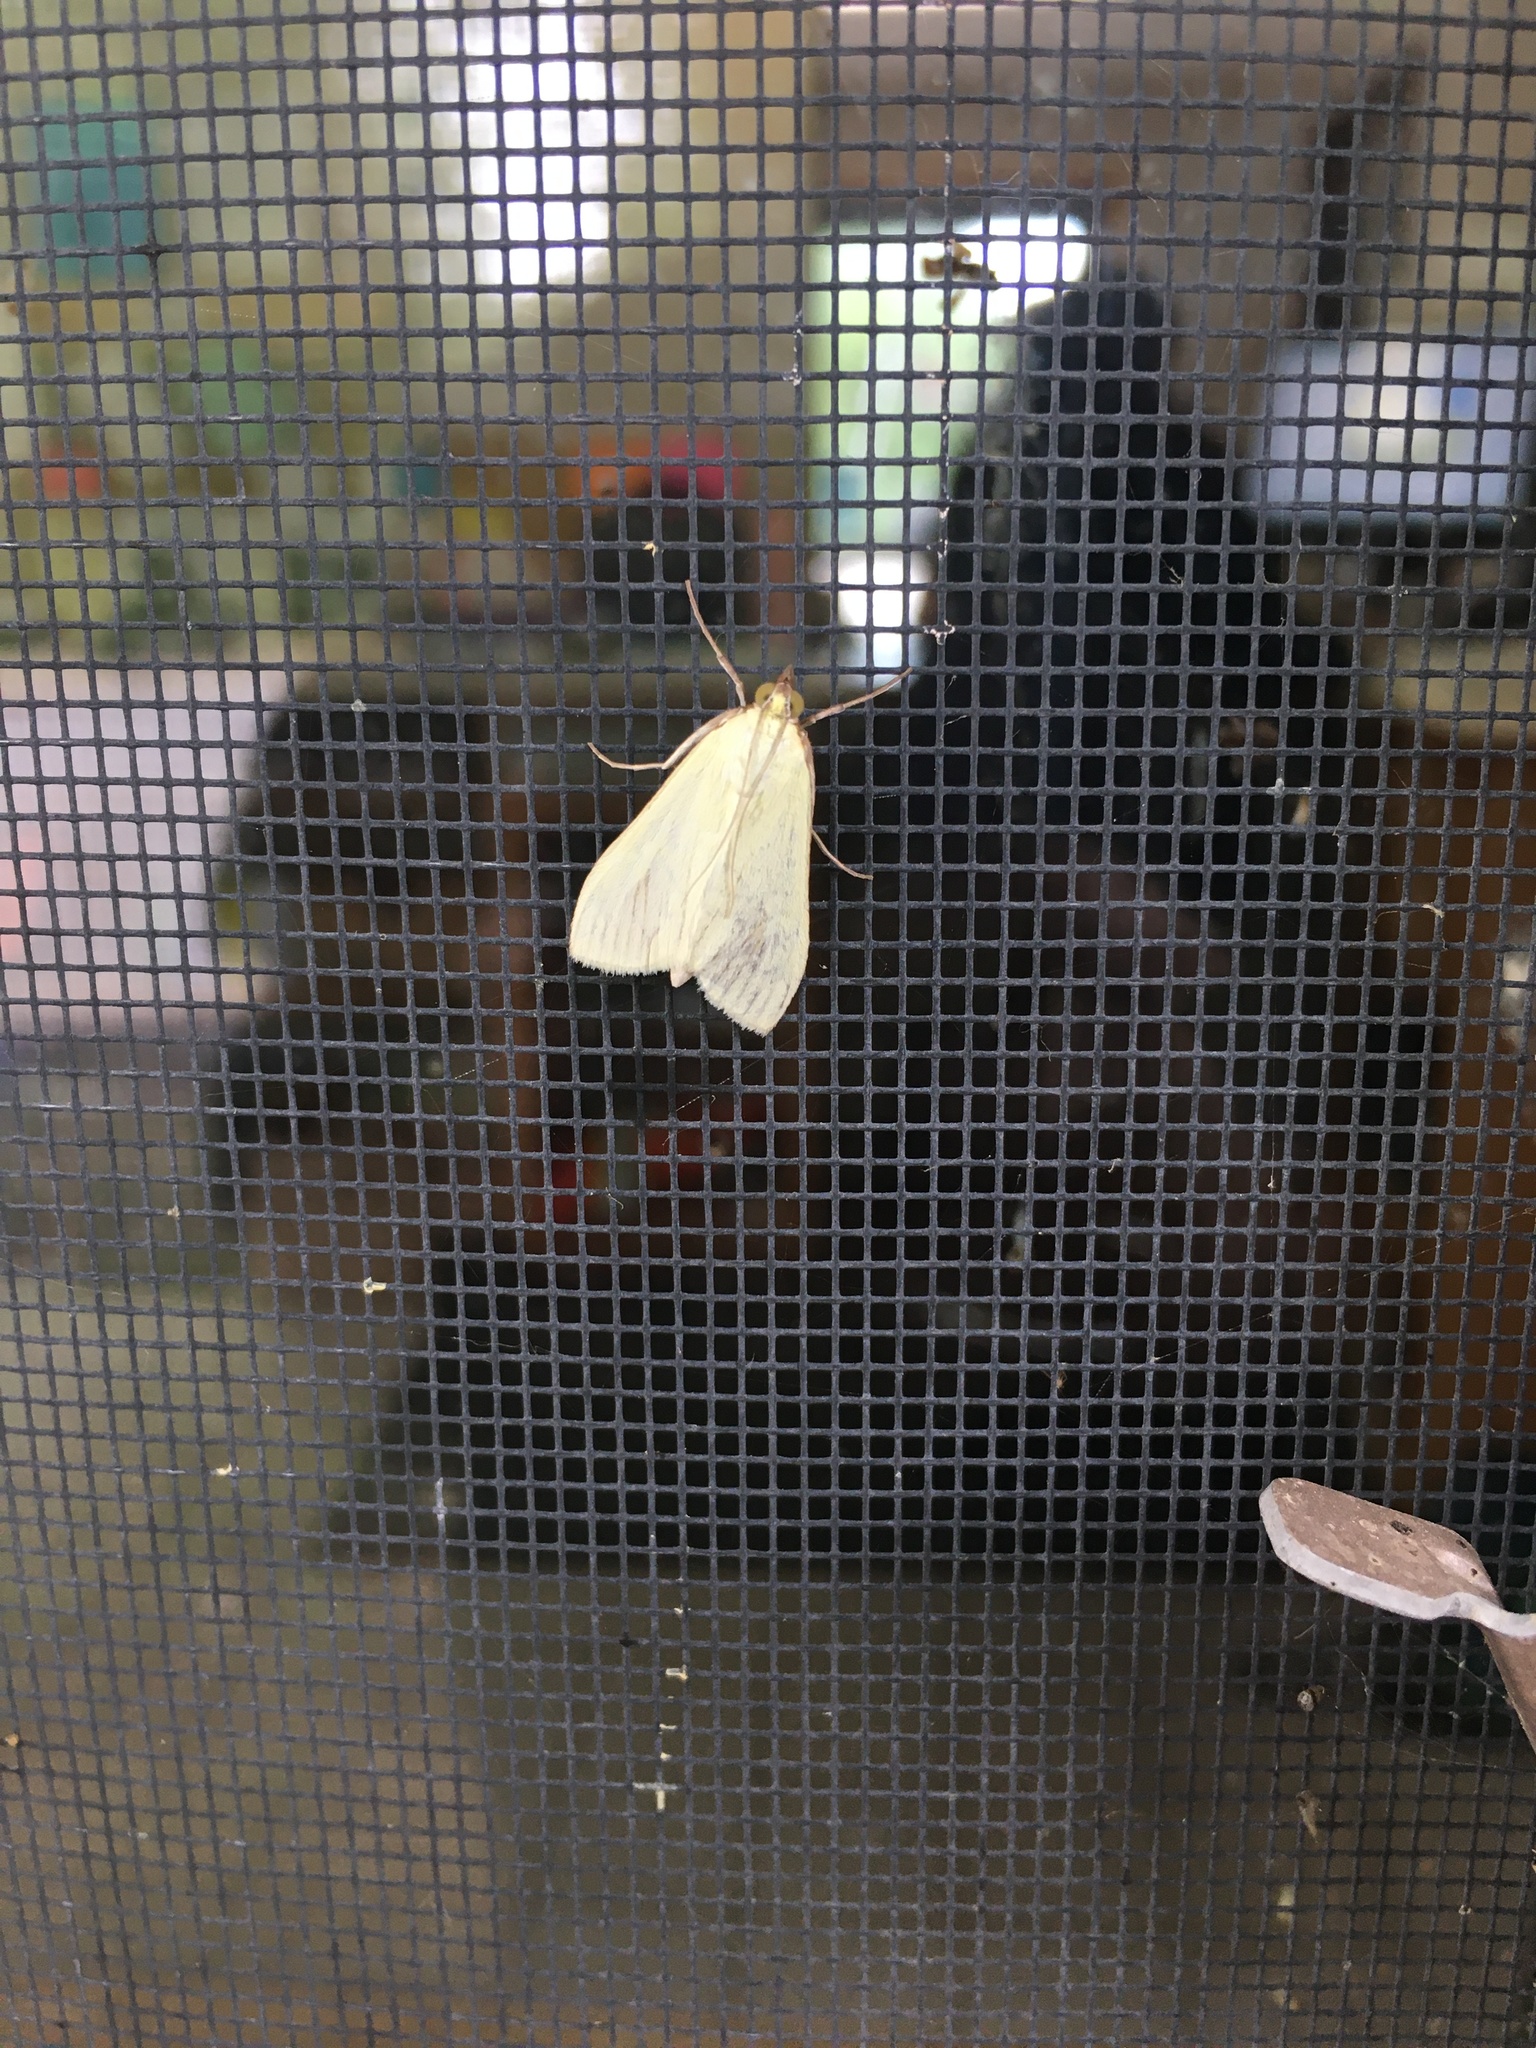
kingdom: Animalia
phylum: Arthropoda
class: Insecta
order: Lepidoptera
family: Crambidae
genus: Sitochroa
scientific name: Sitochroa palealis
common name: Greenish-yellow sitochroa moth
